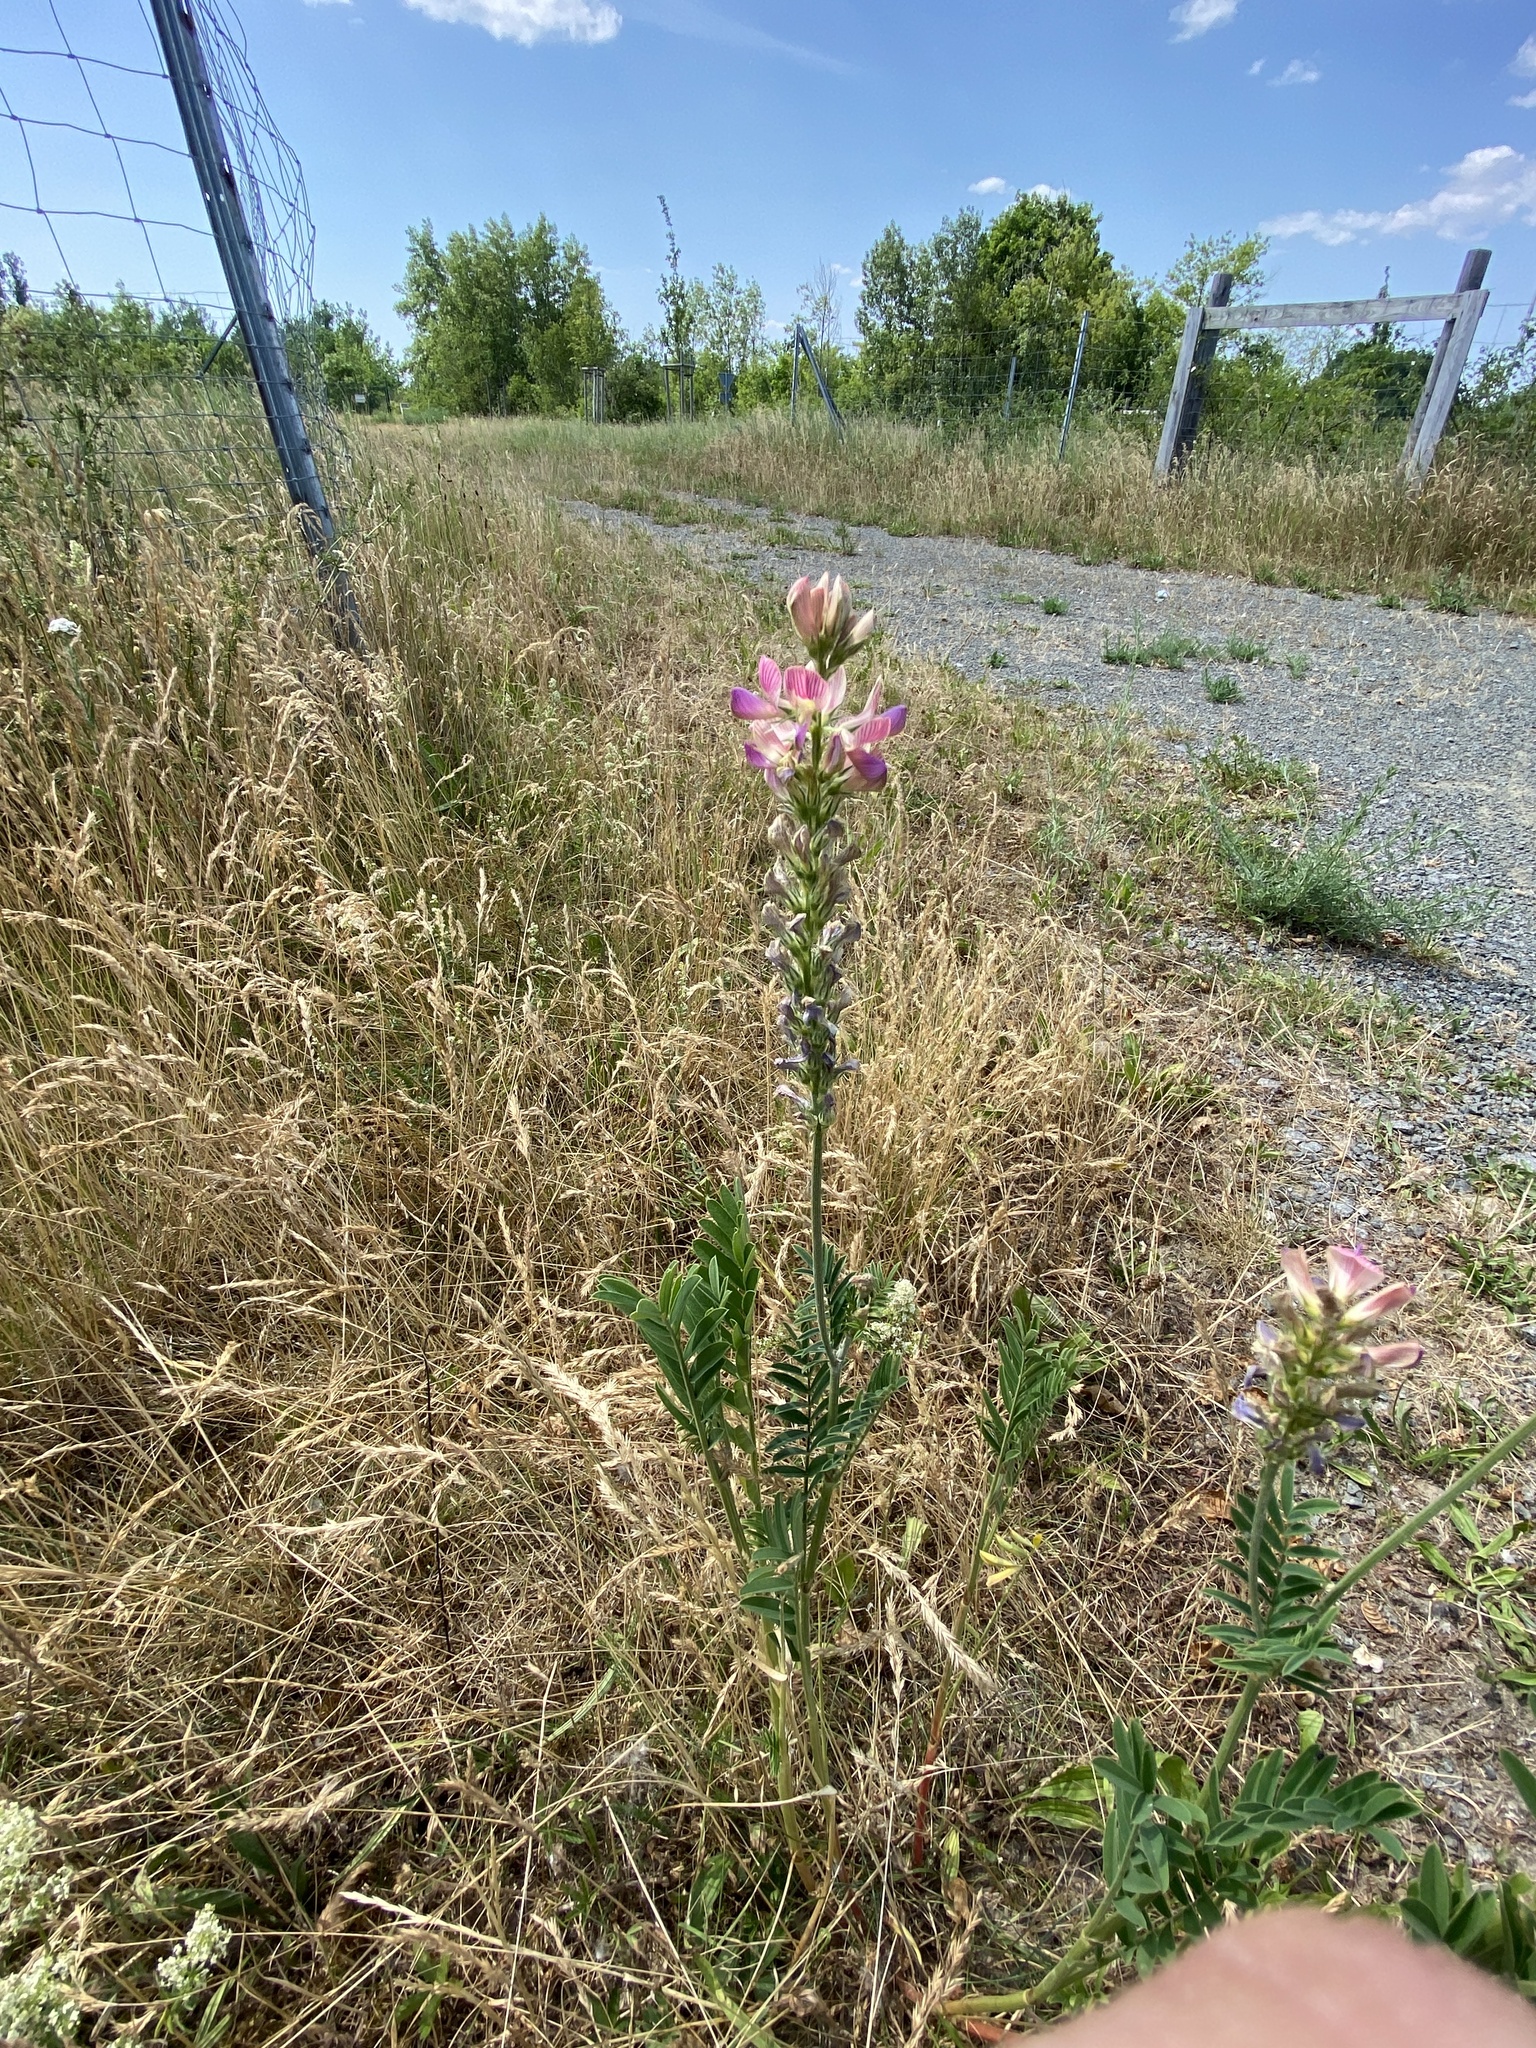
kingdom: Plantae
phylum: Tracheophyta
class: Magnoliopsida
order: Fabales
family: Fabaceae
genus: Onobrychis
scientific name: Onobrychis viciifolia
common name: Sainfoin
